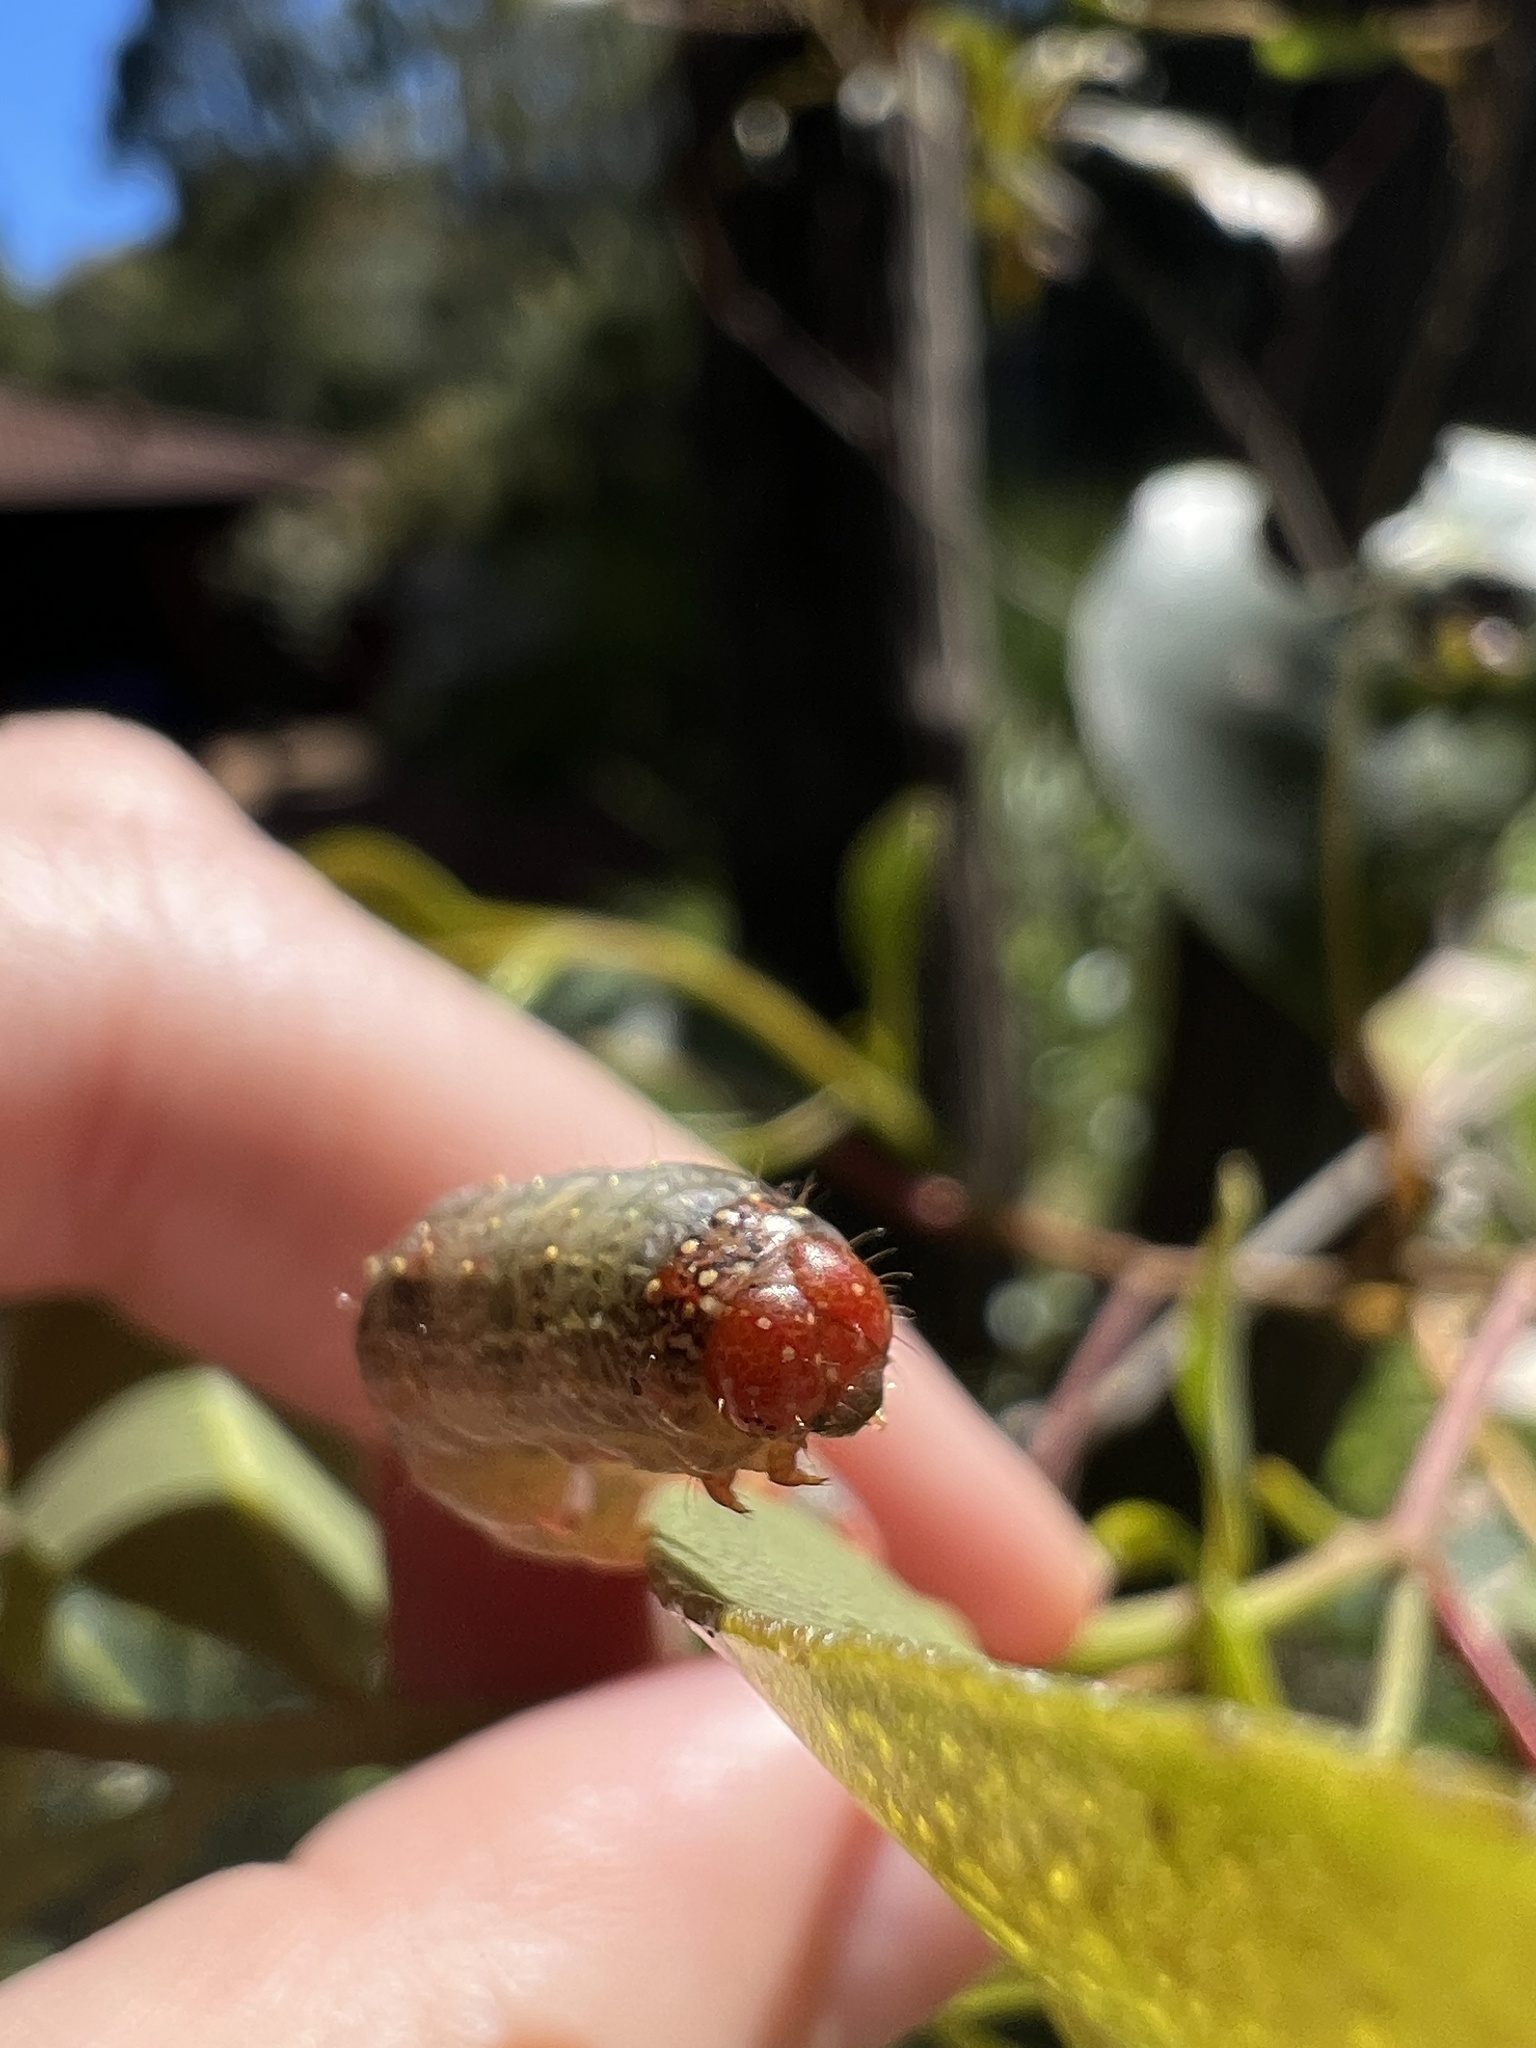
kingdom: Animalia
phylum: Arthropoda
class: Insecta
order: Lepidoptera
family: Geometridae
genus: Mnesampela
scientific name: Mnesampela privata
